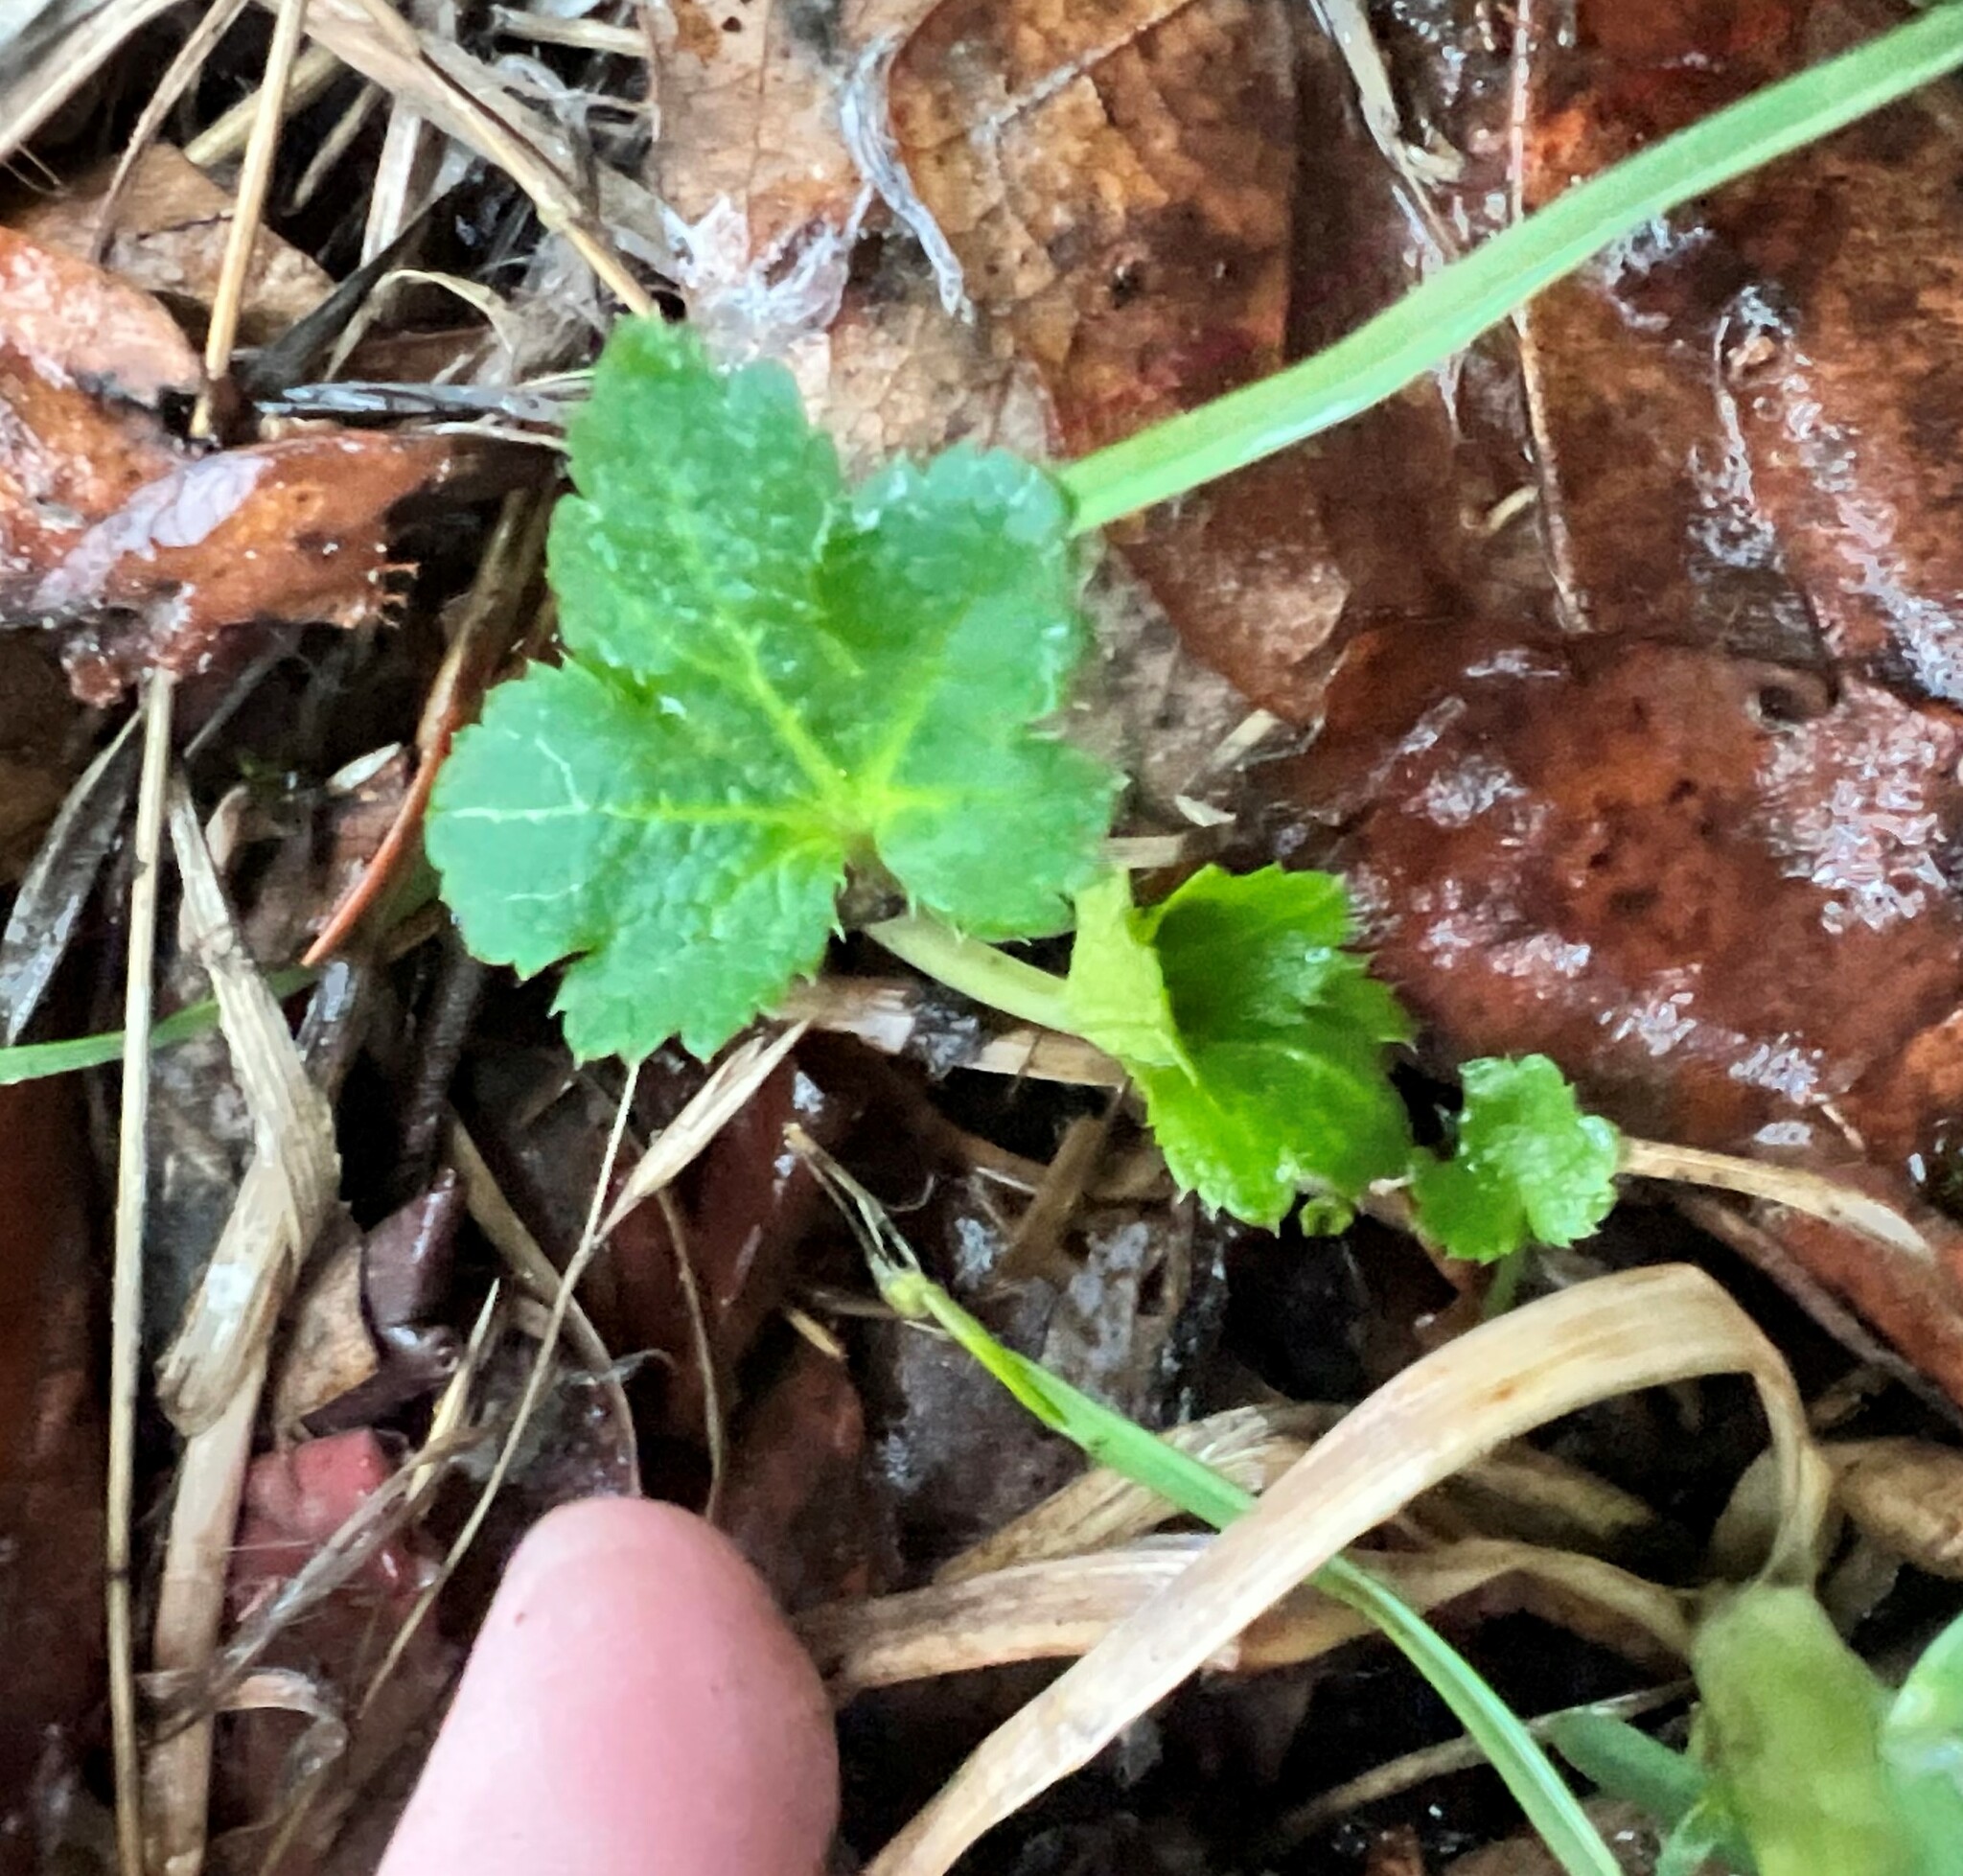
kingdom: Plantae
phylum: Tracheophyta
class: Magnoliopsida
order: Apiales
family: Apiaceae
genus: Sanicula
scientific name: Sanicula crassicaulis
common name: Western snakeroot
